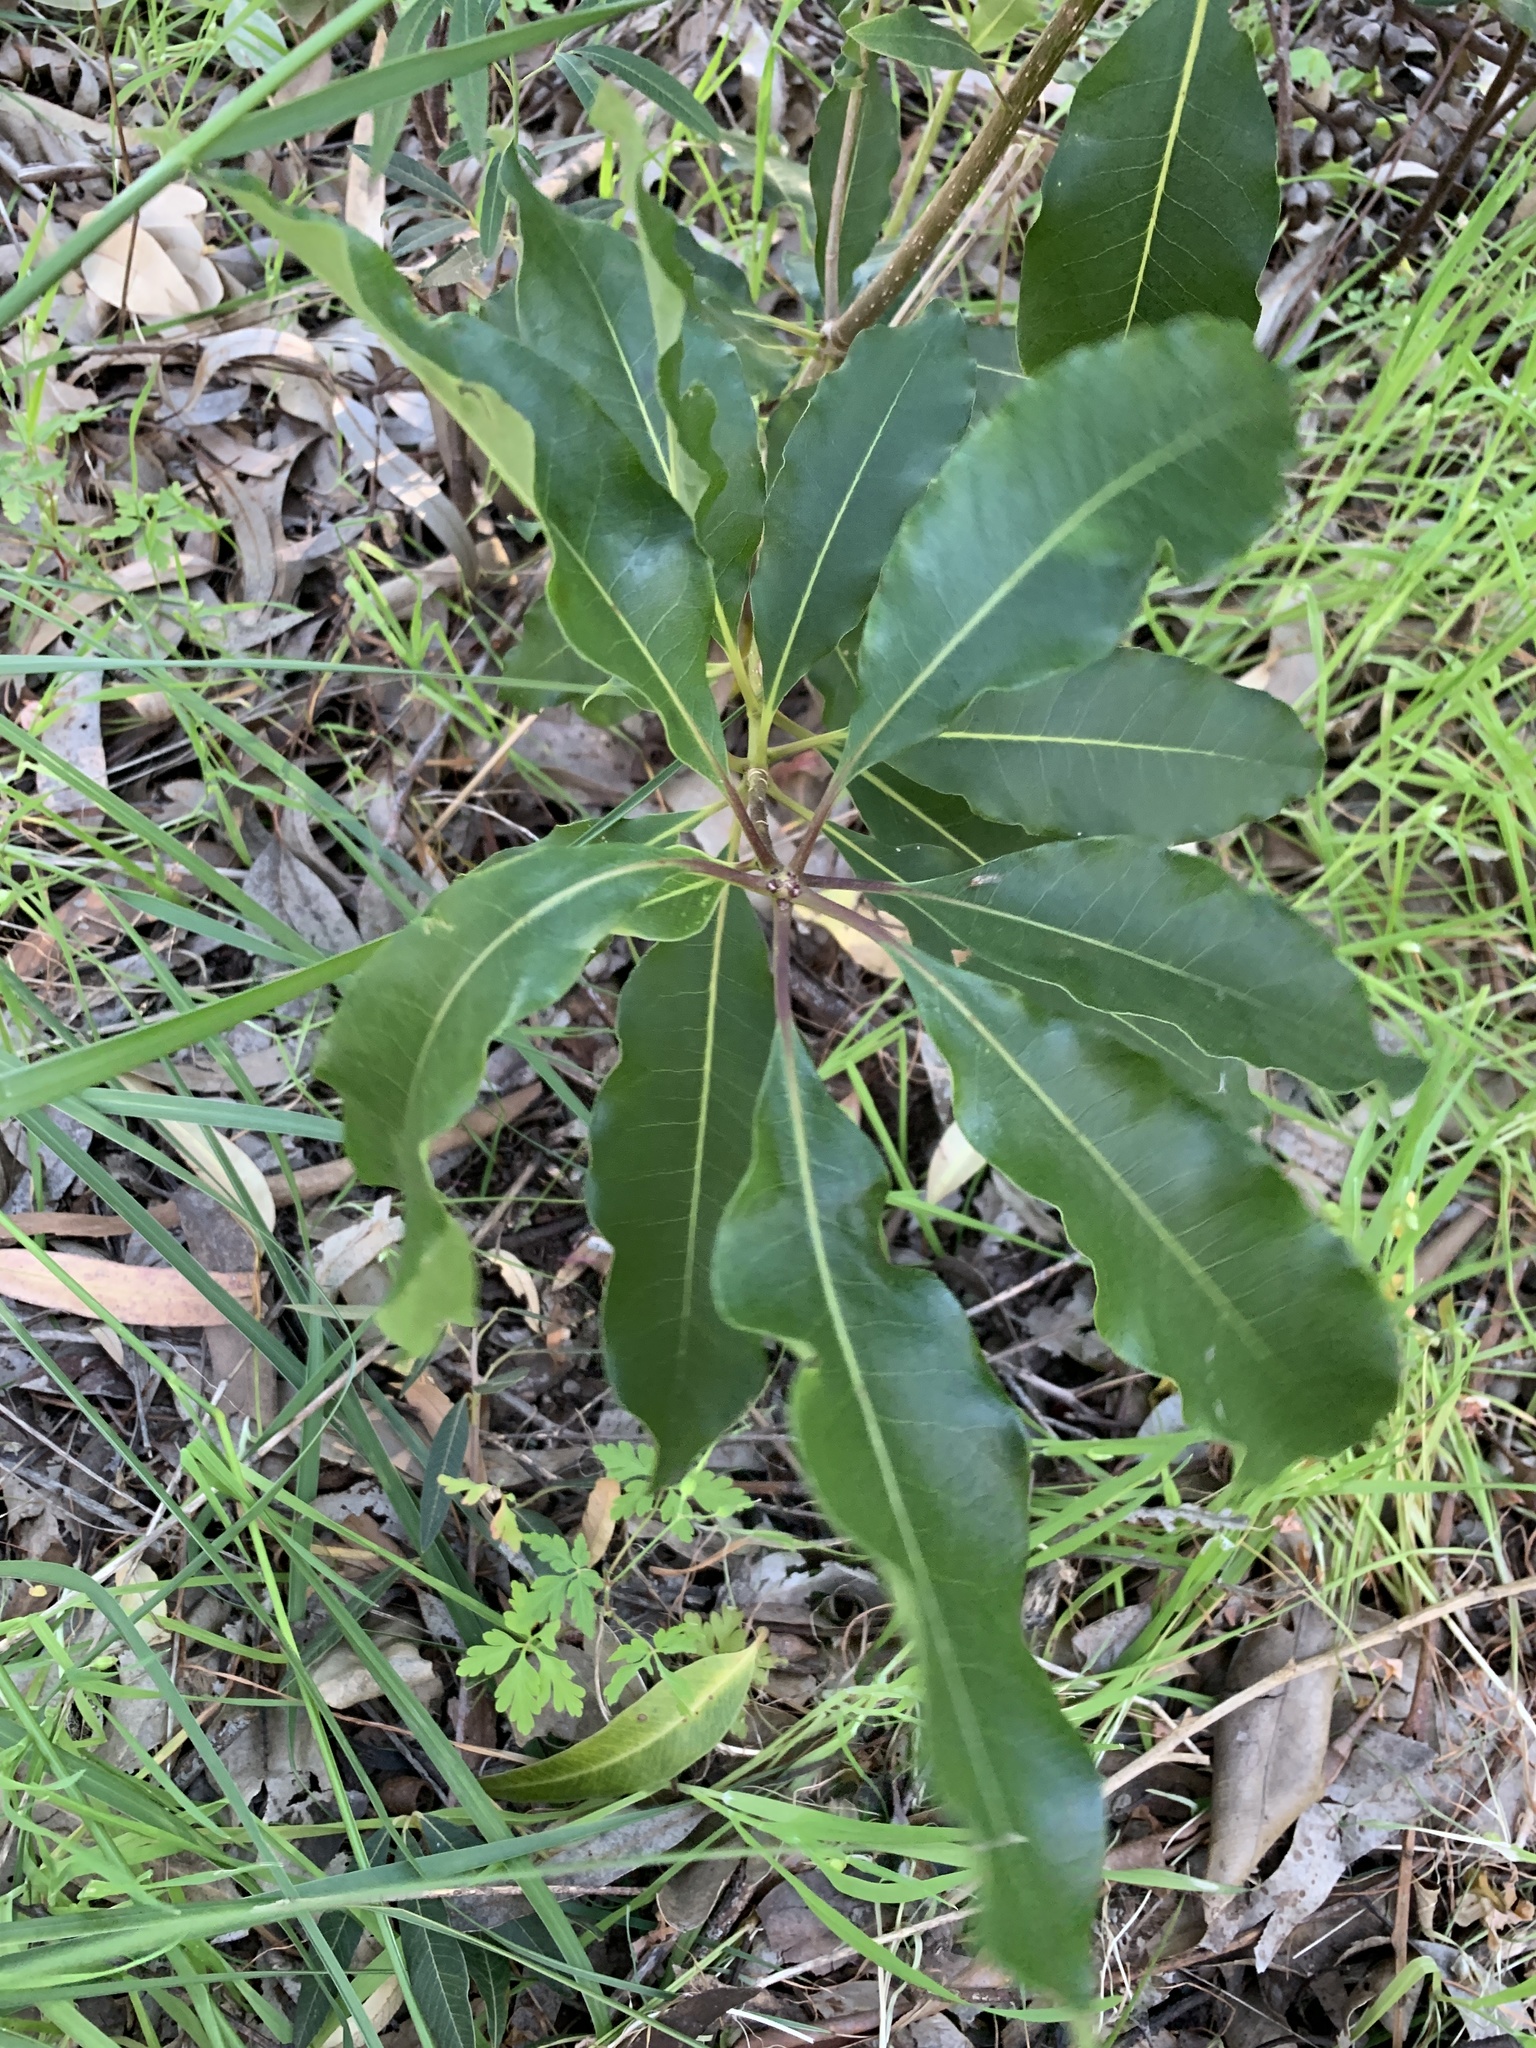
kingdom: Plantae
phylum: Tracheophyta
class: Magnoliopsida
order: Apiales
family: Pittosporaceae
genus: Pittosporum
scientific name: Pittosporum undulatum
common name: Australian cheesewood
